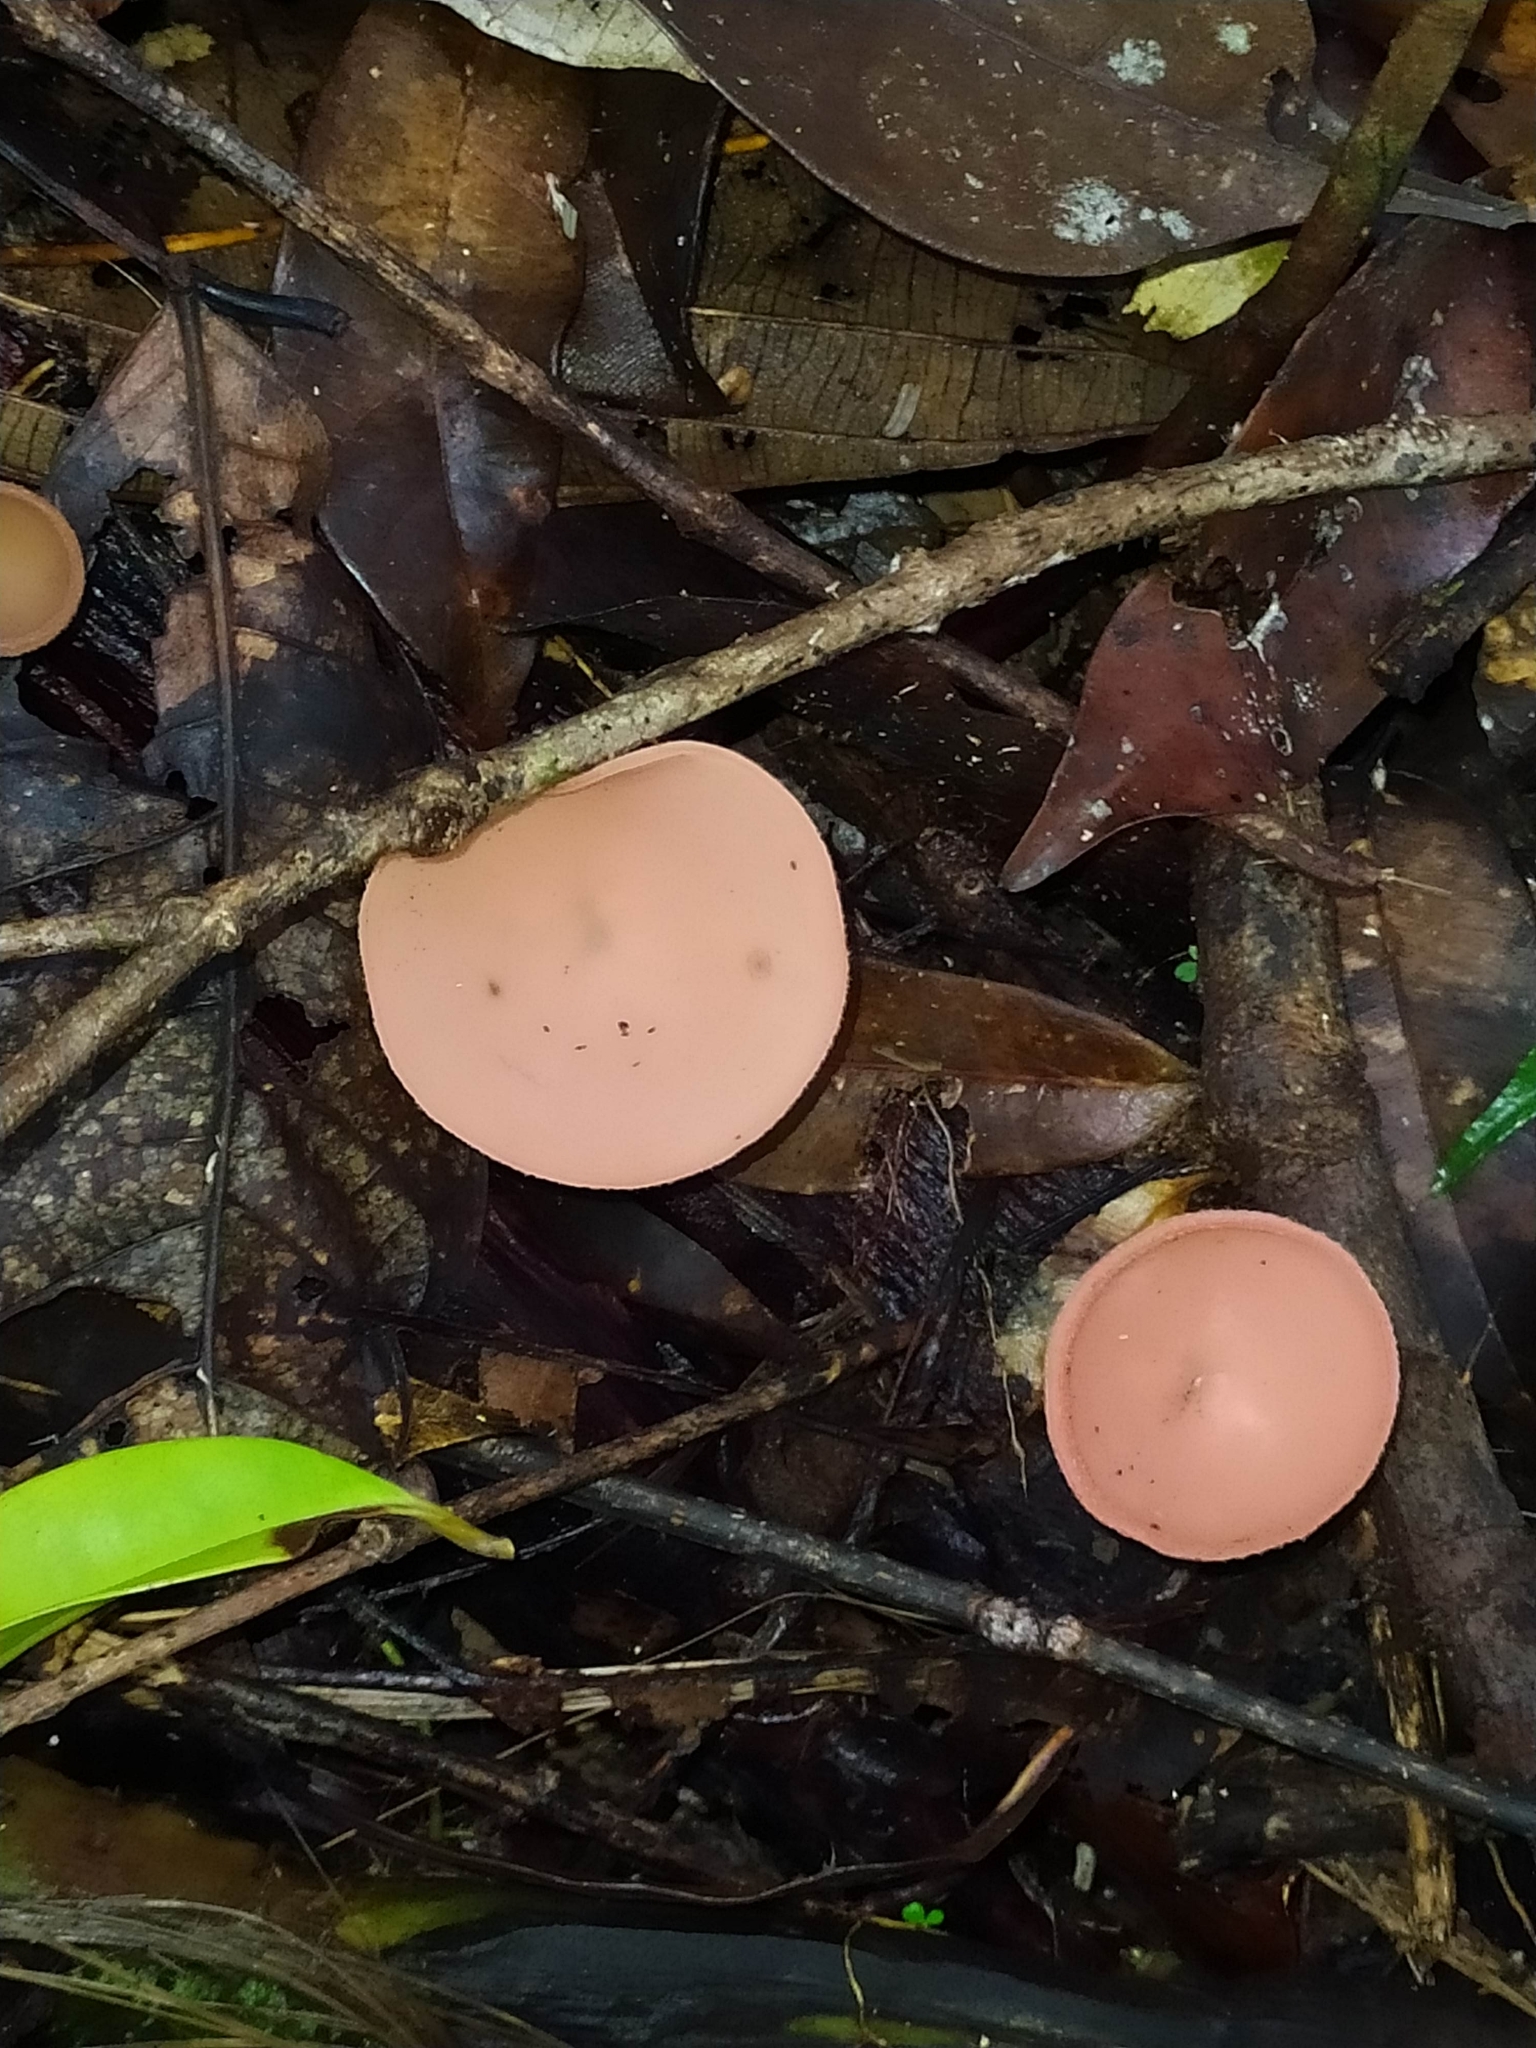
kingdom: Fungi
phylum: Ascomycota
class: Pezizomycetes
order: Pezizales
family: Sarcoscyphaceae
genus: Cookeina
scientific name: Cookeina speciosa
